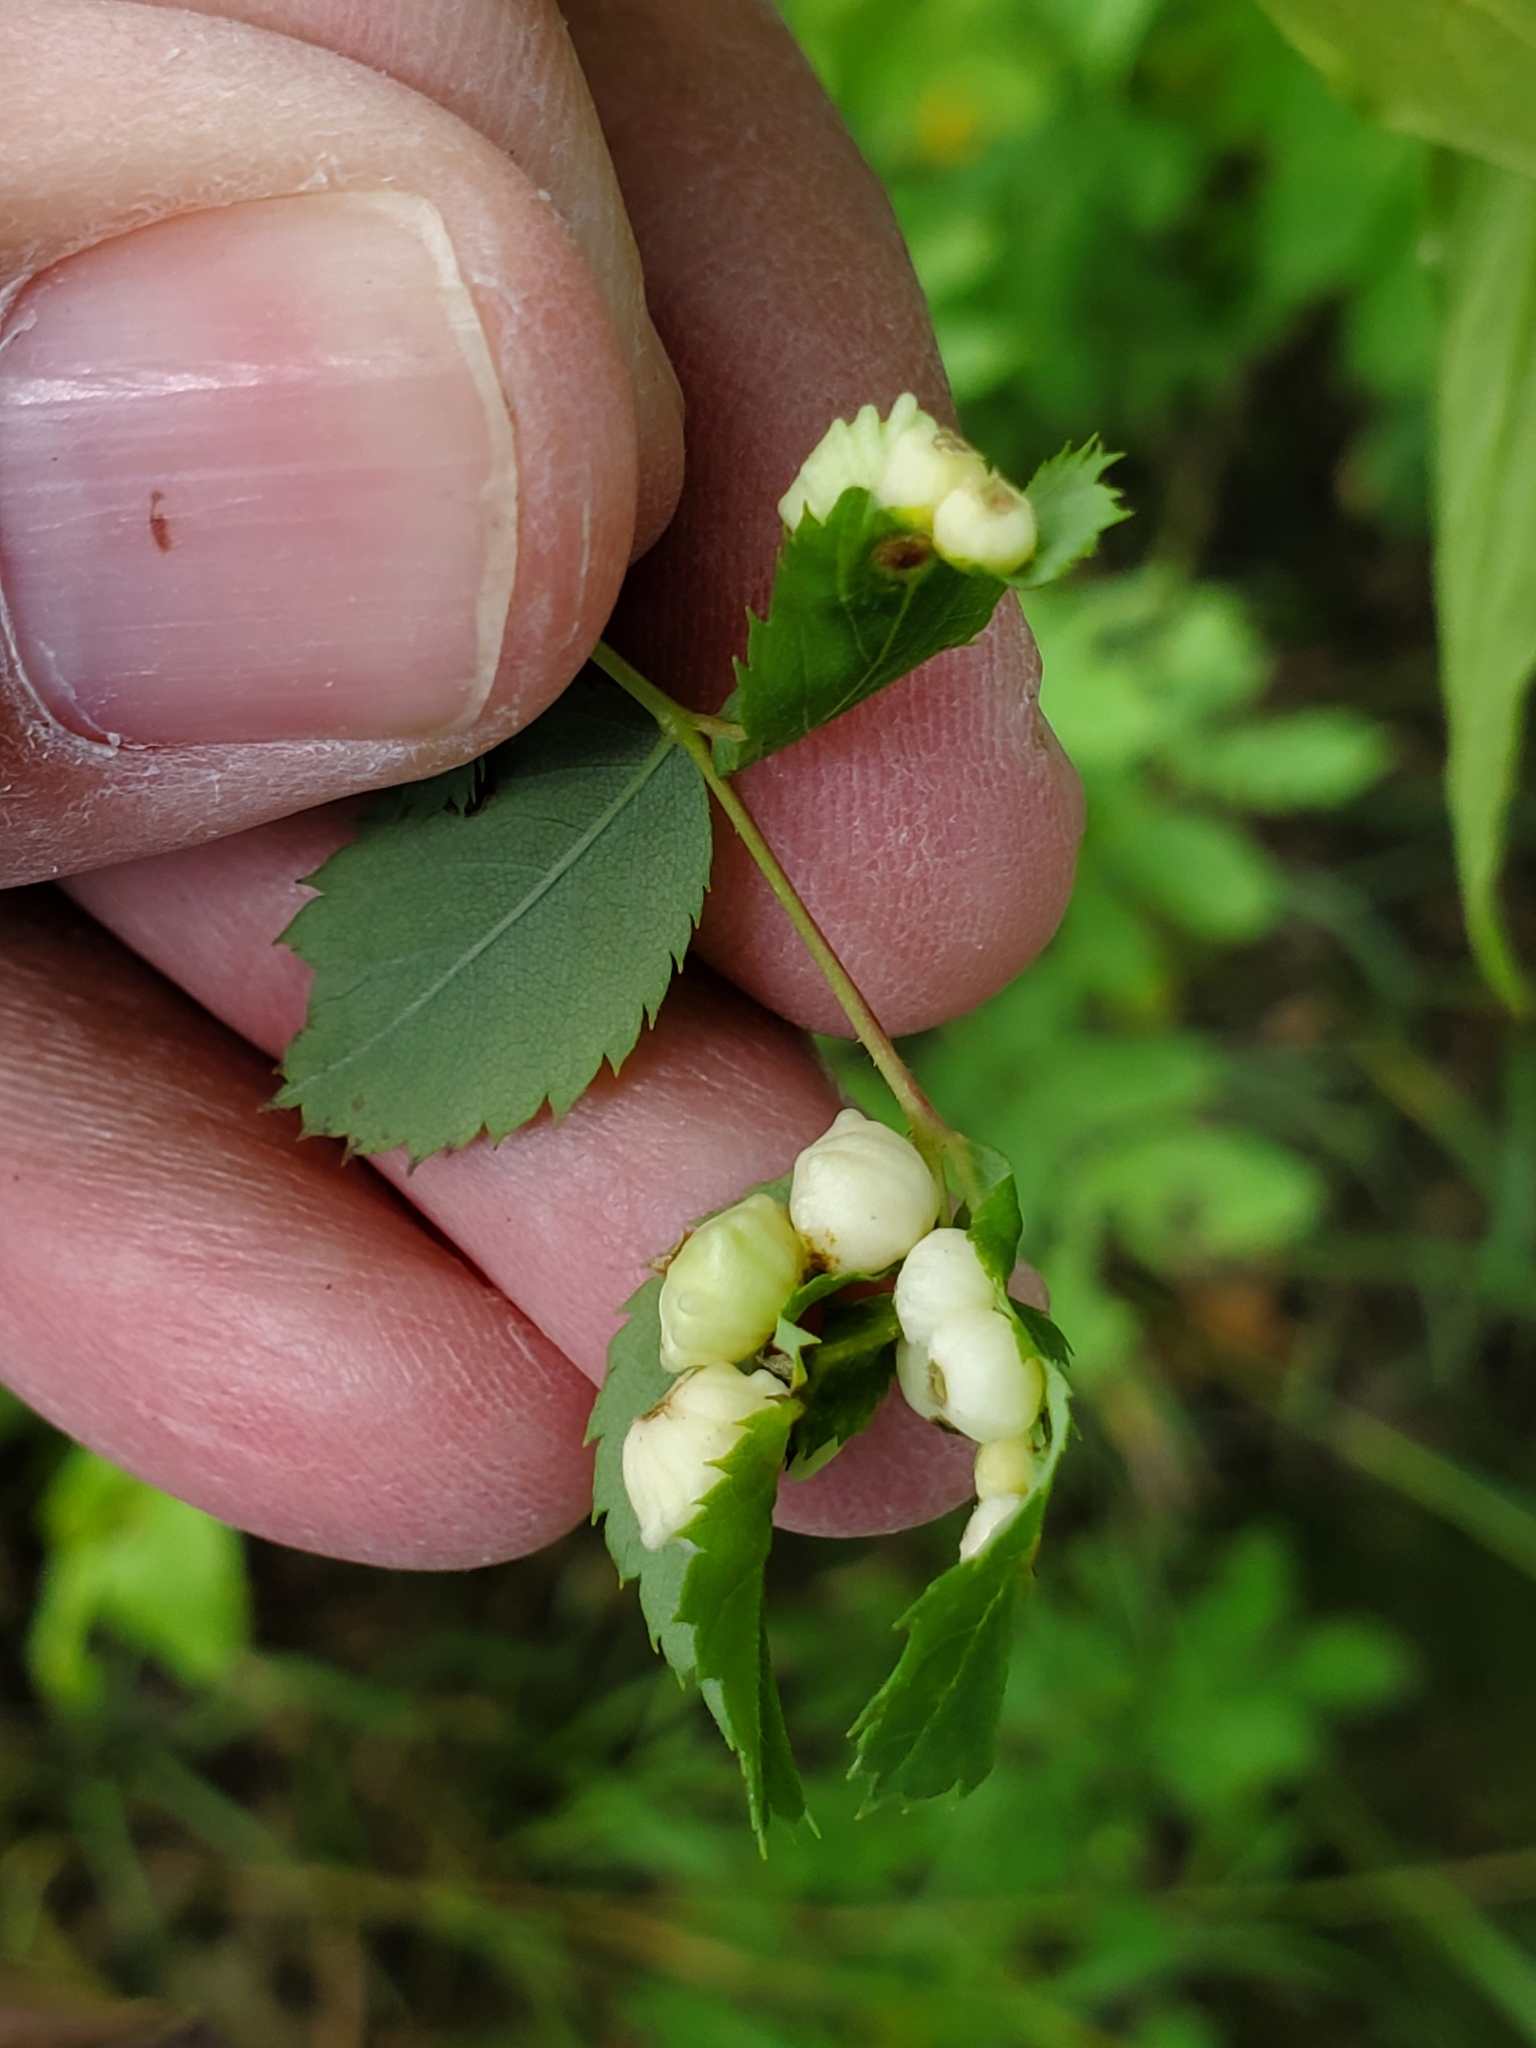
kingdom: Animalia
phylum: Arthropoda
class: Insecta
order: Hymenoptera
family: Cynipidae
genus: Diplolepis
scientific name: Diplolepis gracilis
